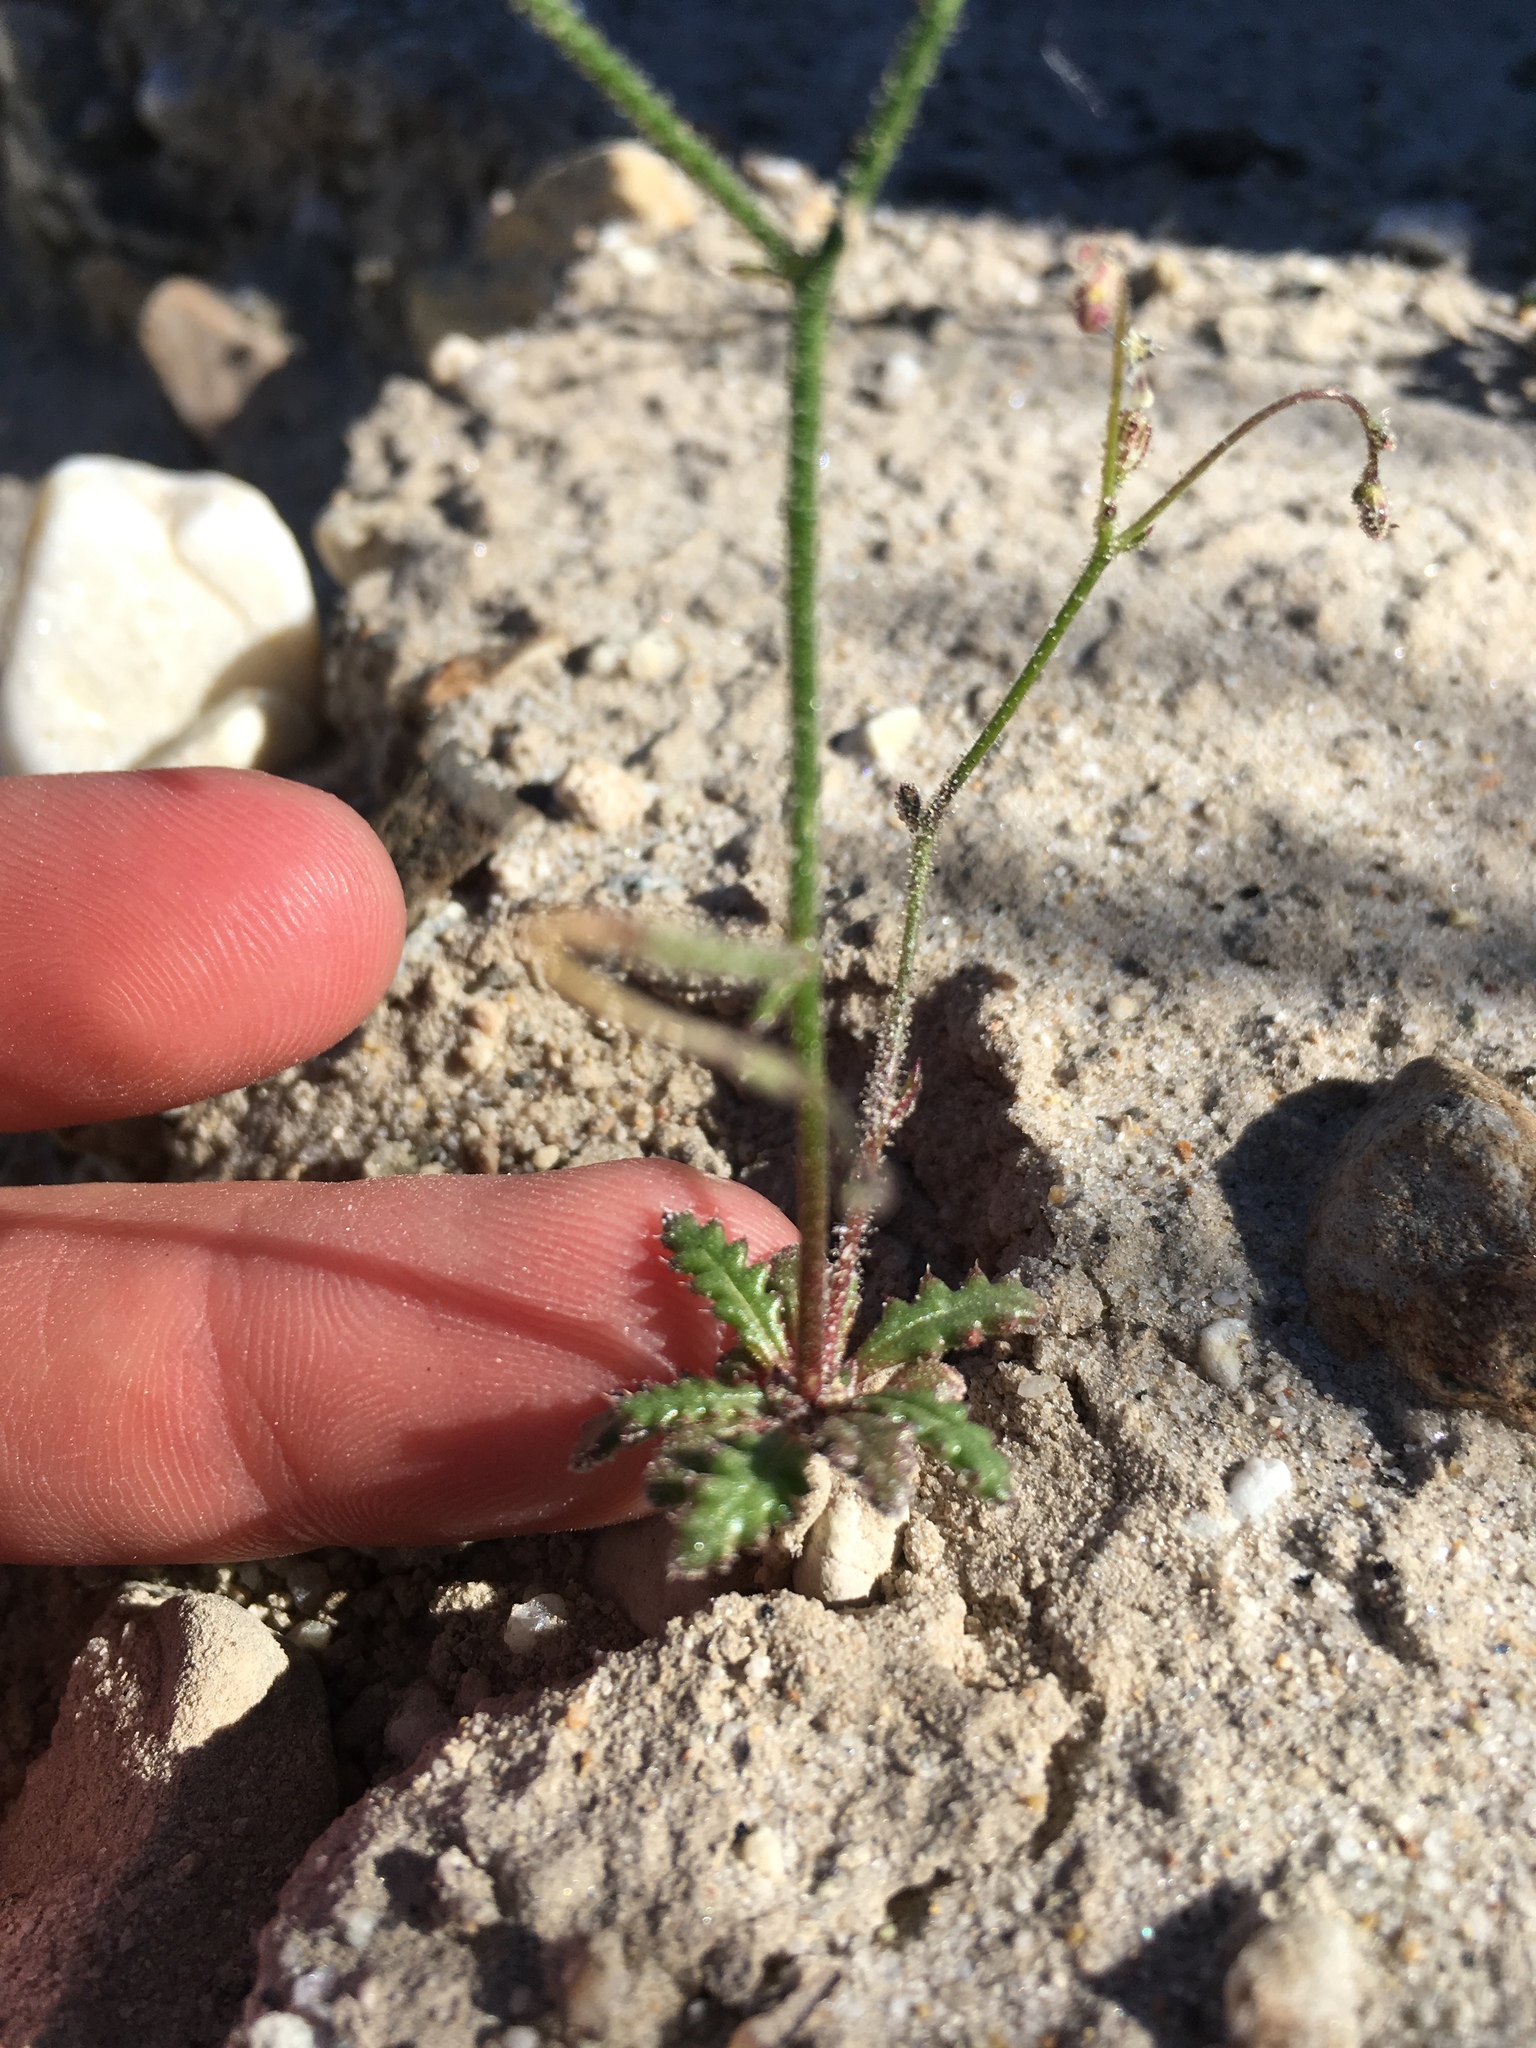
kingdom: Plantae
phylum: Tracheophyta
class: Magnoliopsida
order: Ericales
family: Polemoniaceae
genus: Aliciella
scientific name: Aliciella leptomeria
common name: Sand gilia
